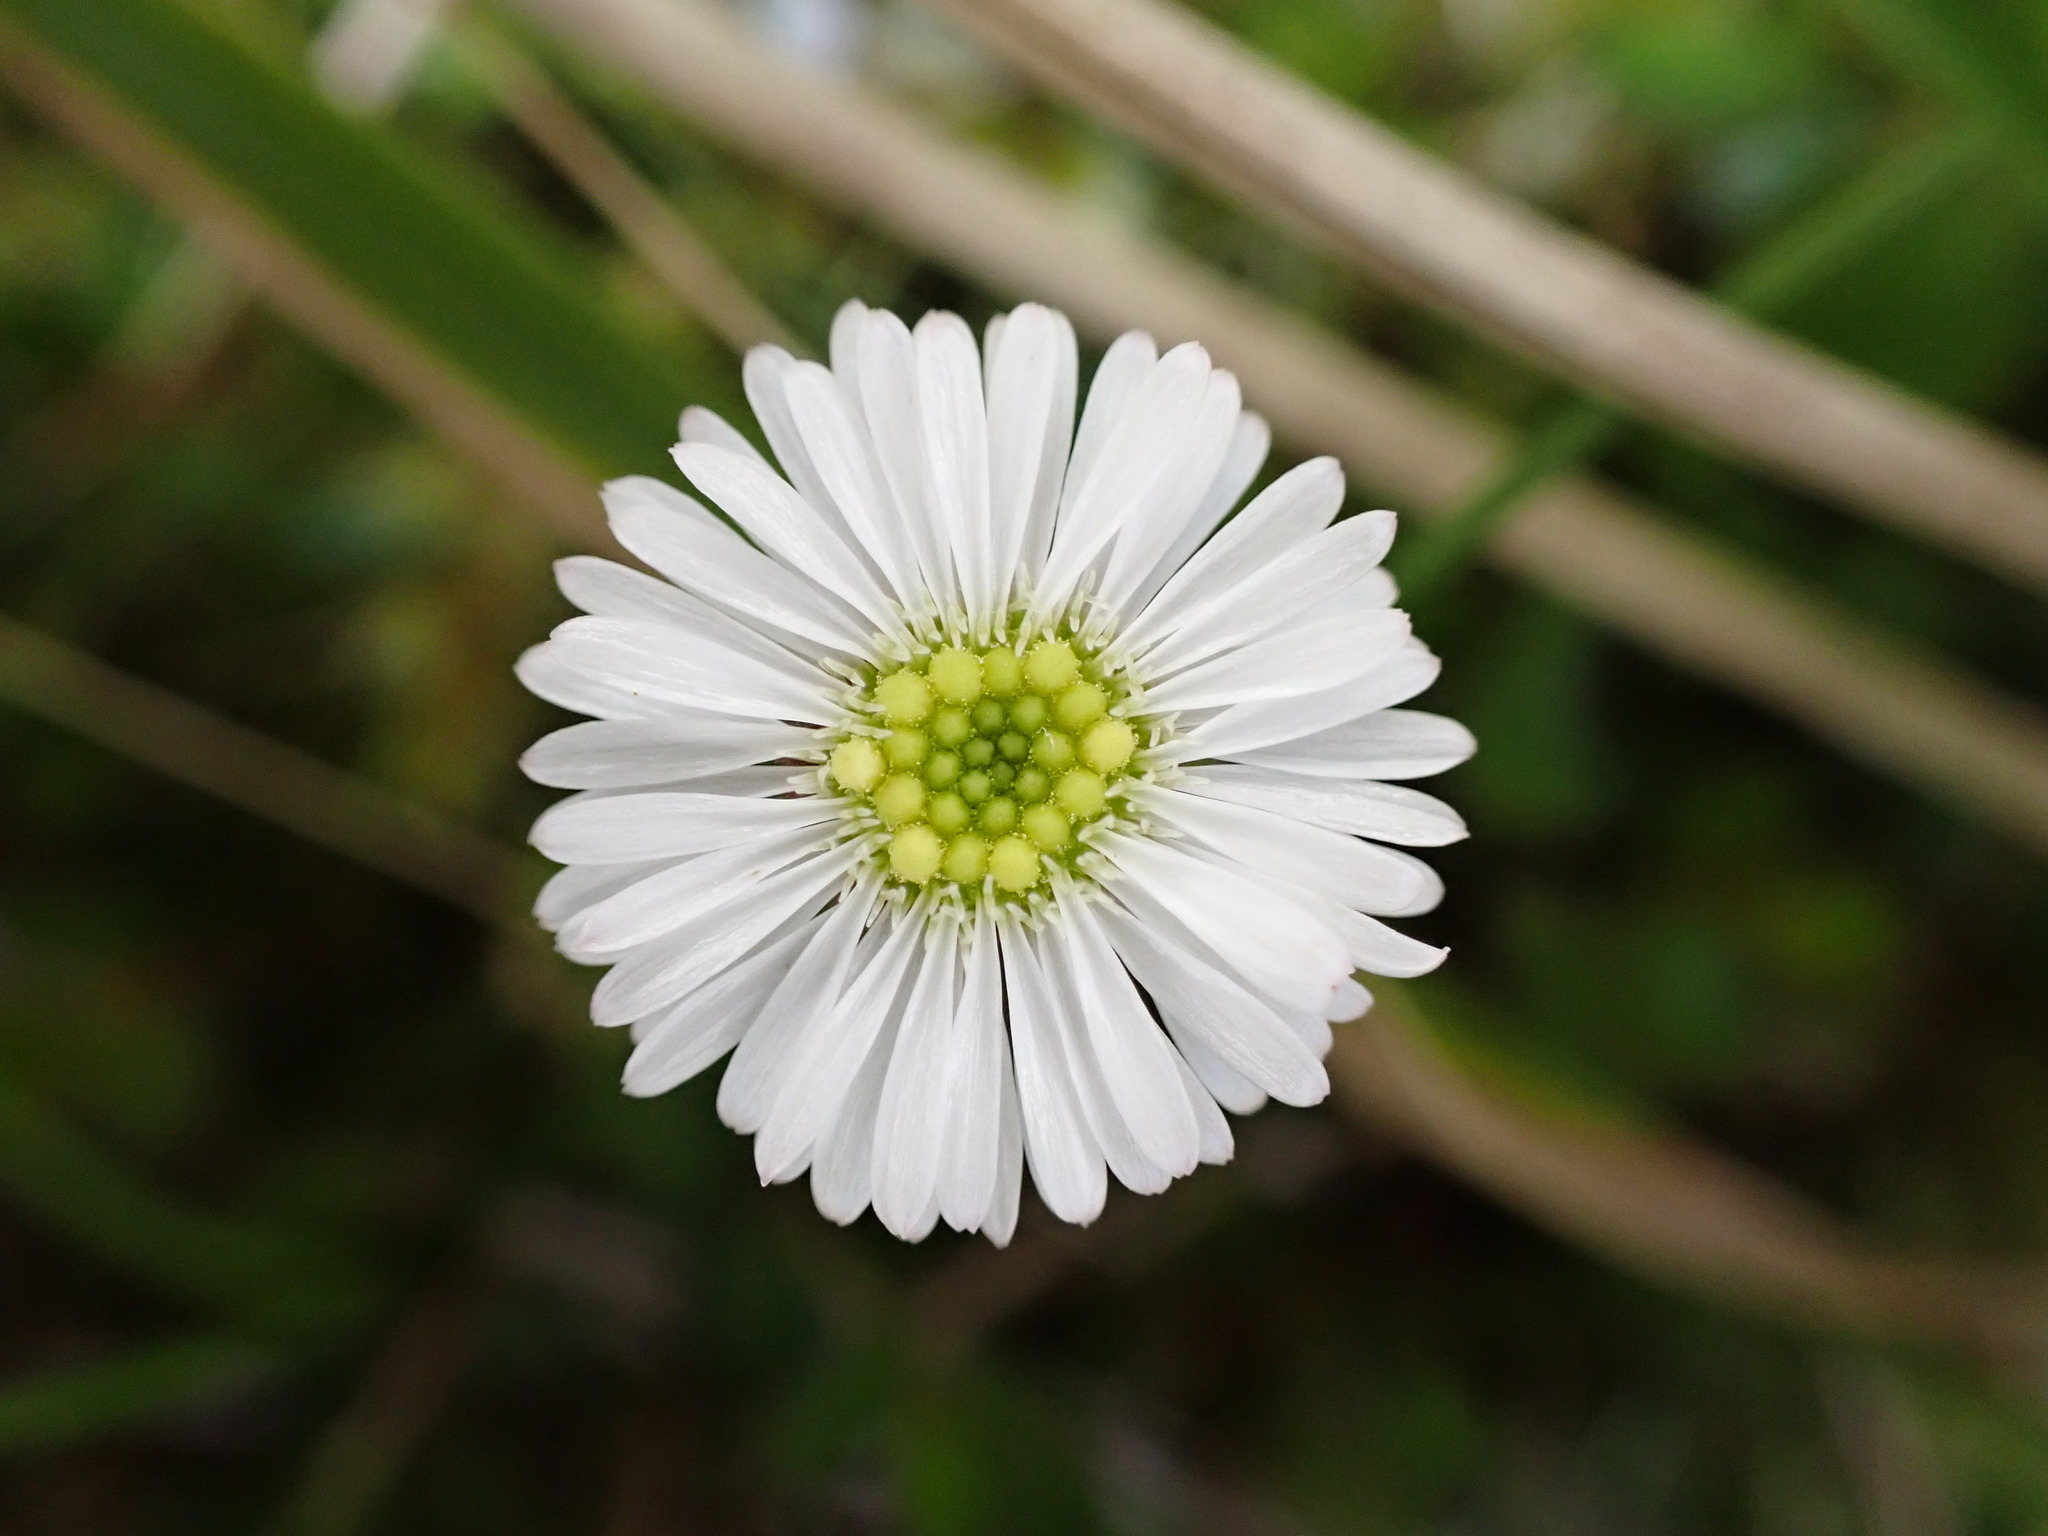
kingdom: Plantae
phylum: Tracheophyta
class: Magnoliopsida
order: Asterales
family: Asteraceae
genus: Lagenophora
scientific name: Lagenophora pumila
